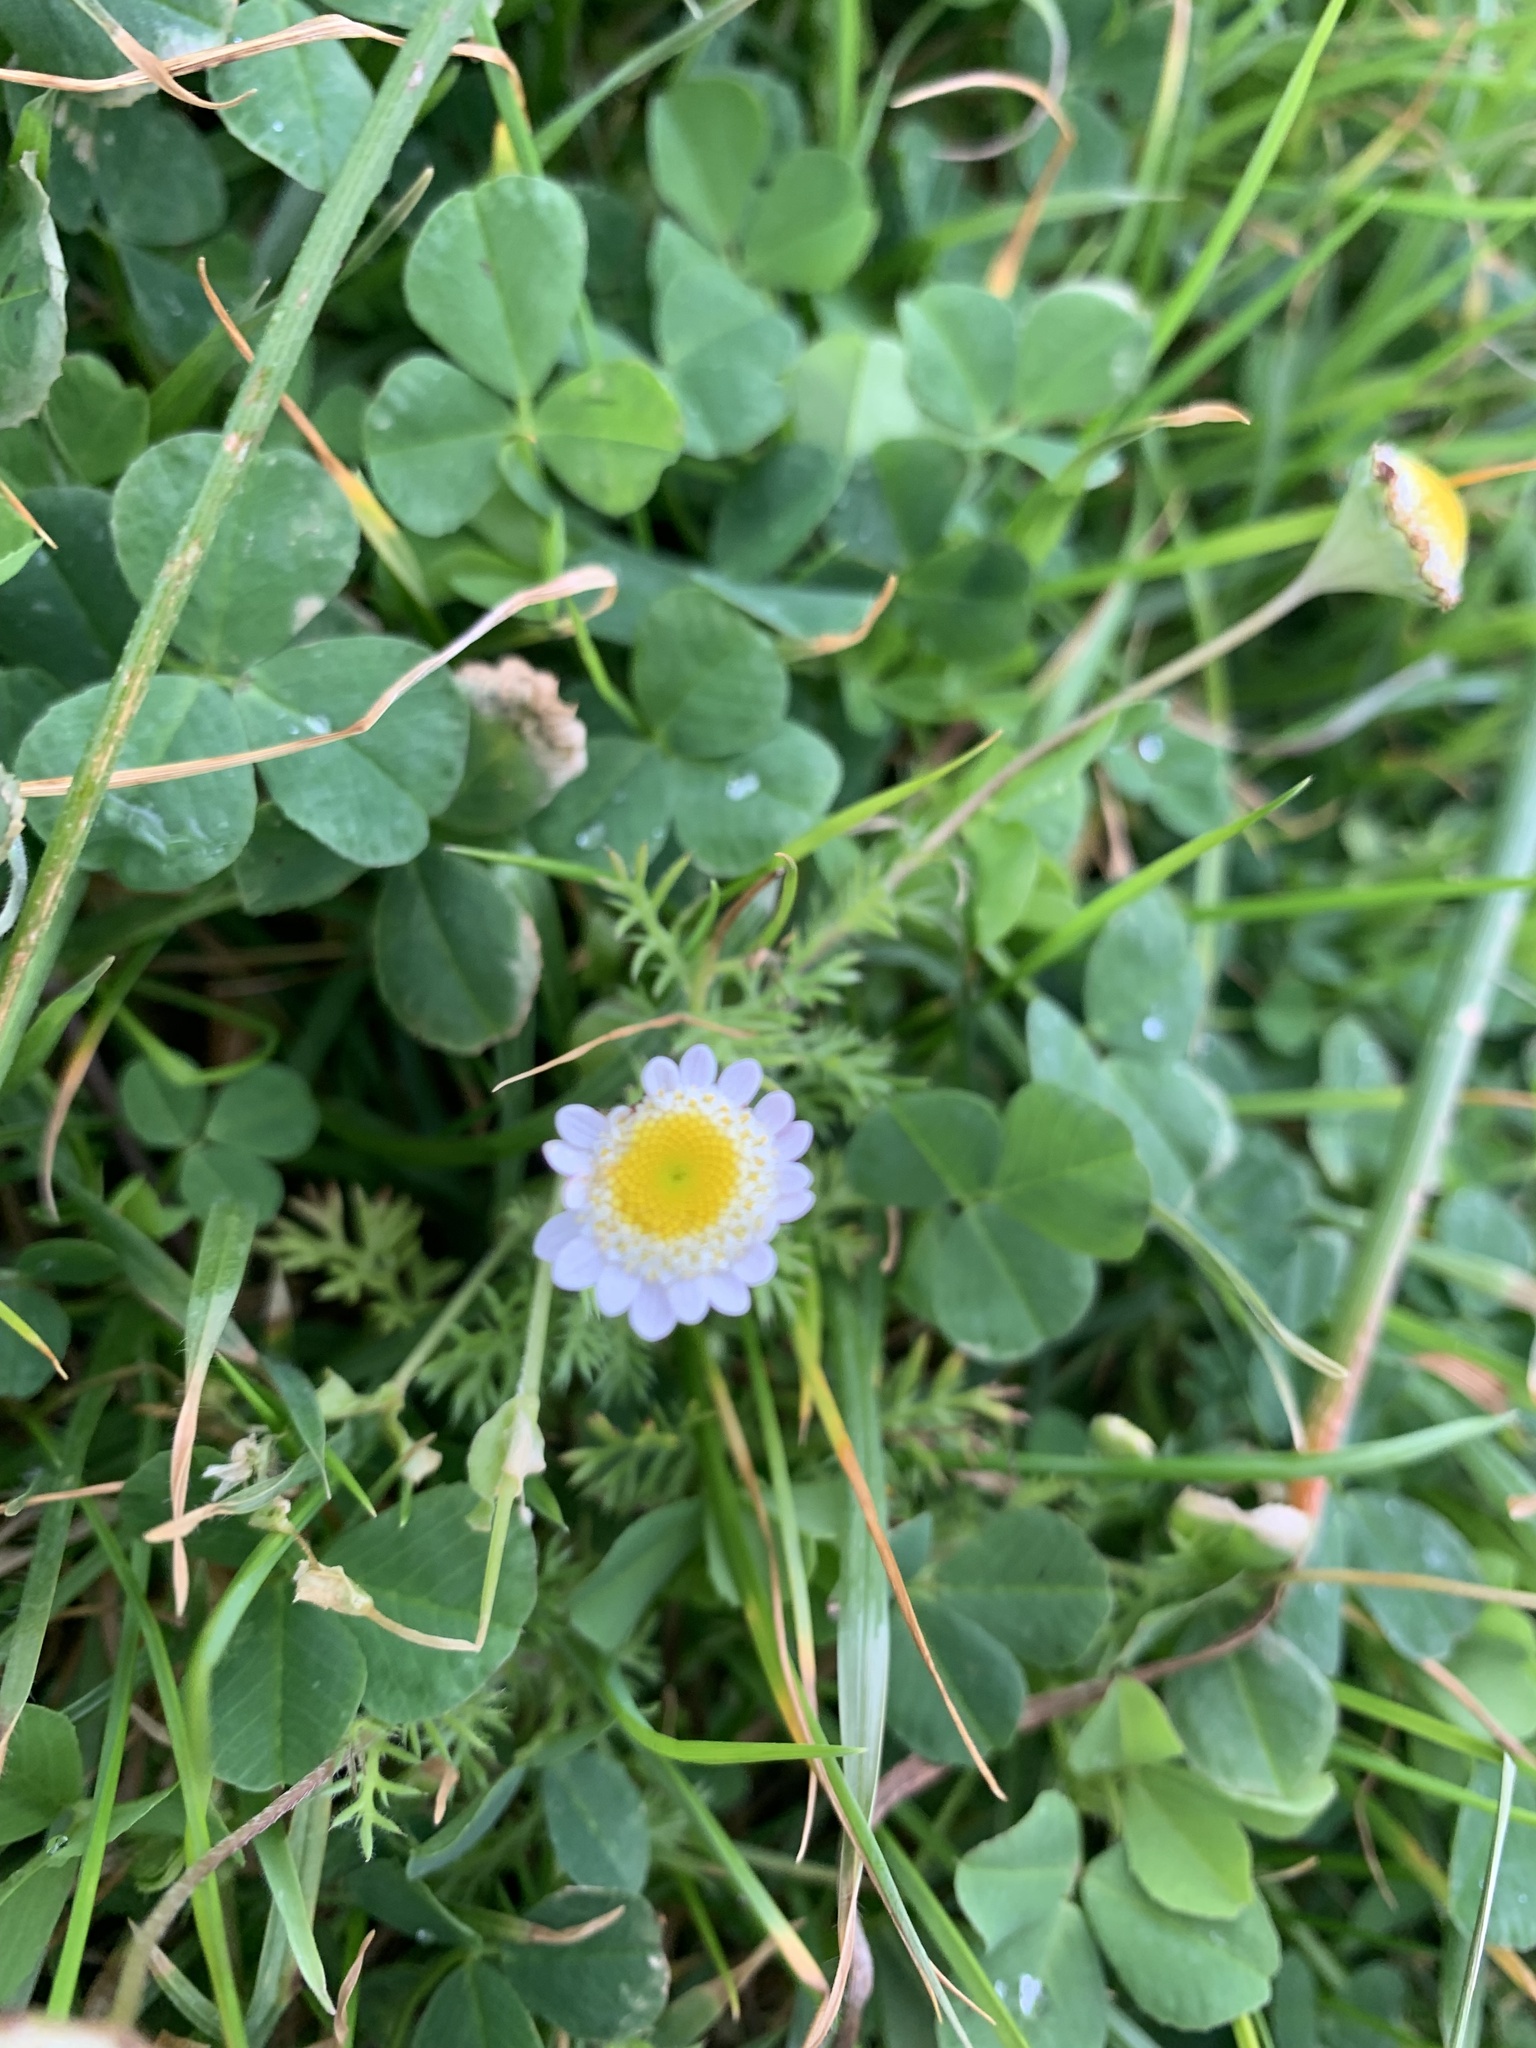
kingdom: Plantae
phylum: Tracheophyta
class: Magnoliopsida
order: Asterales
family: Asteraceae
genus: Cotula
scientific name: Cotula turbinata
